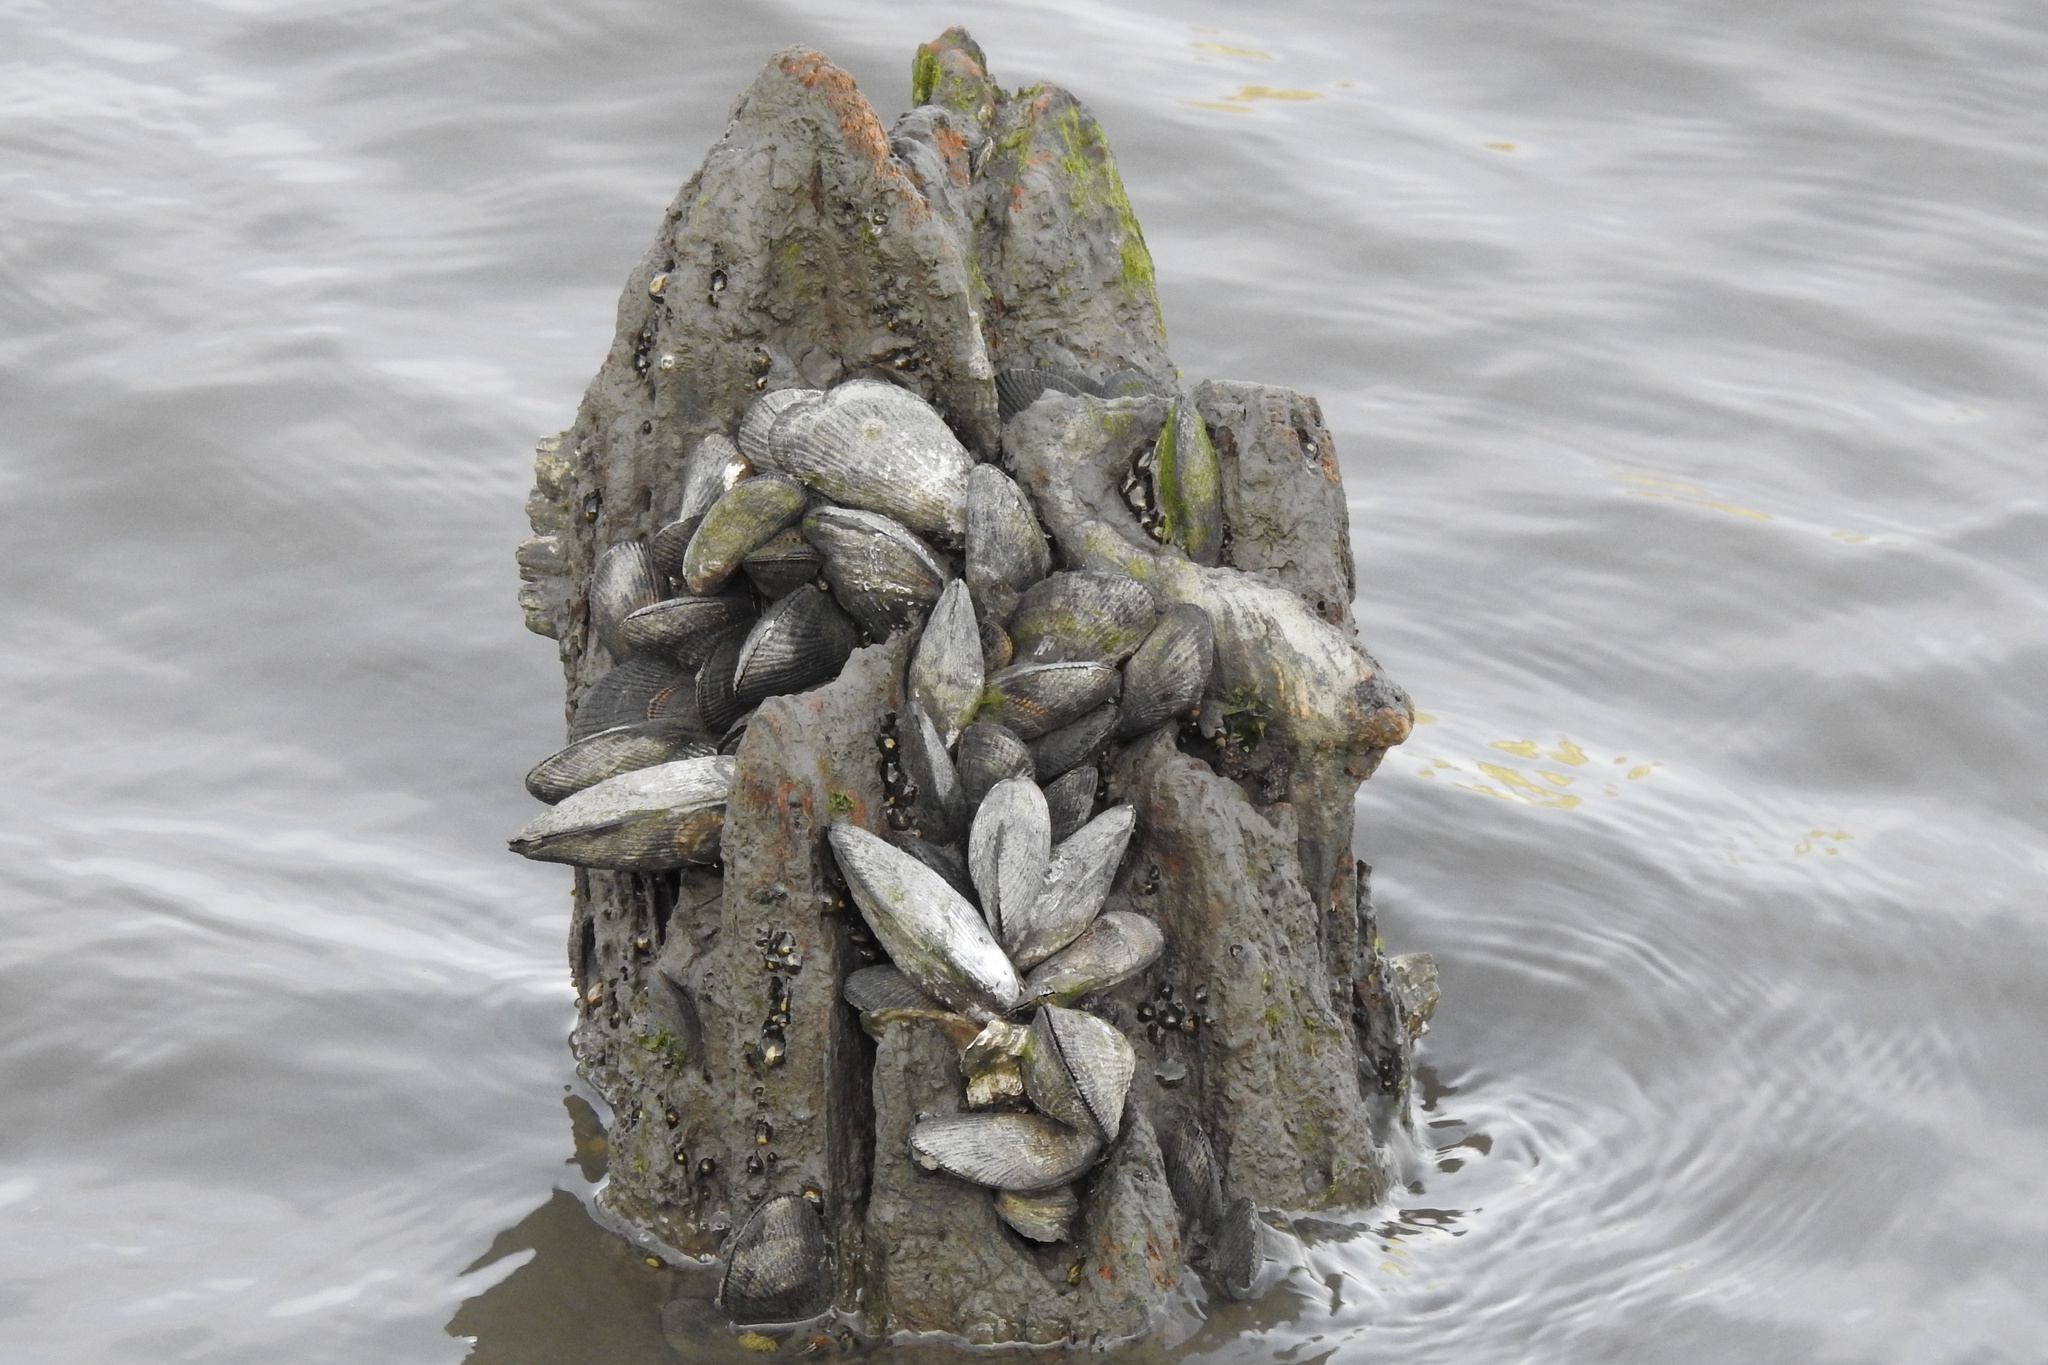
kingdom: Animalia
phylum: Mollusca
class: Bivalvia
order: Mytilida
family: Mytilidae
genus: Geukensia
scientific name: Geukensia demissa
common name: Ribbed mussel
